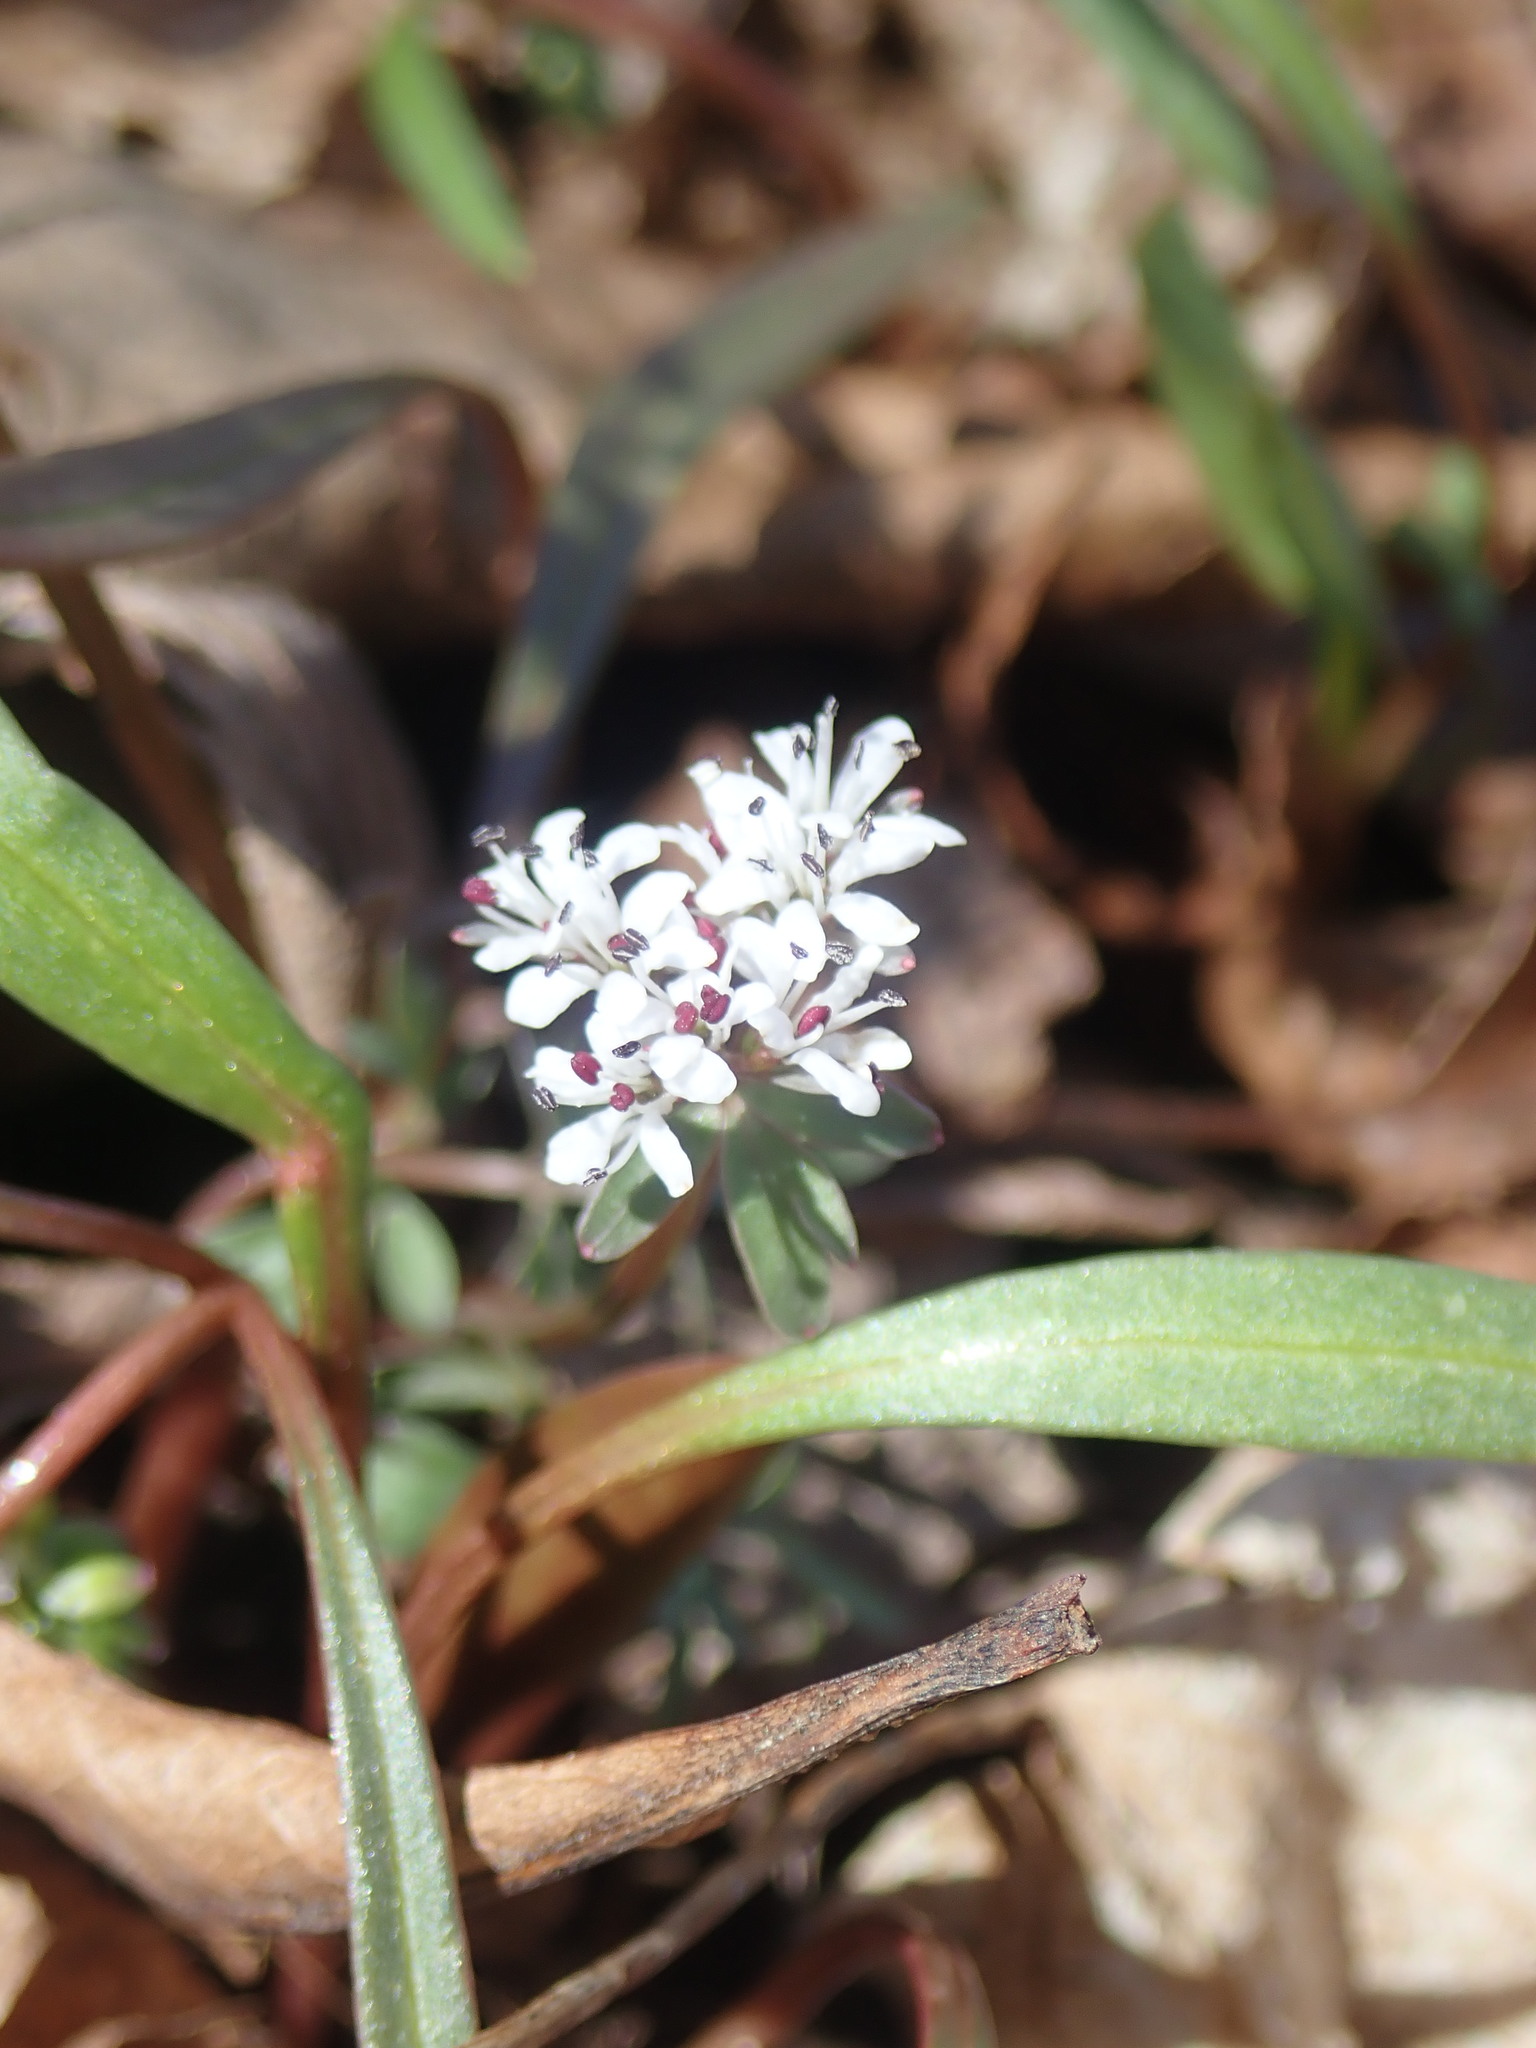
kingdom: Plantae
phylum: Tracheophyta
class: Magnoliopsida
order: Apiales
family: Apiaceae
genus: Erigenia
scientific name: Erigenia bulbosa
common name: Pepper-and-salt
